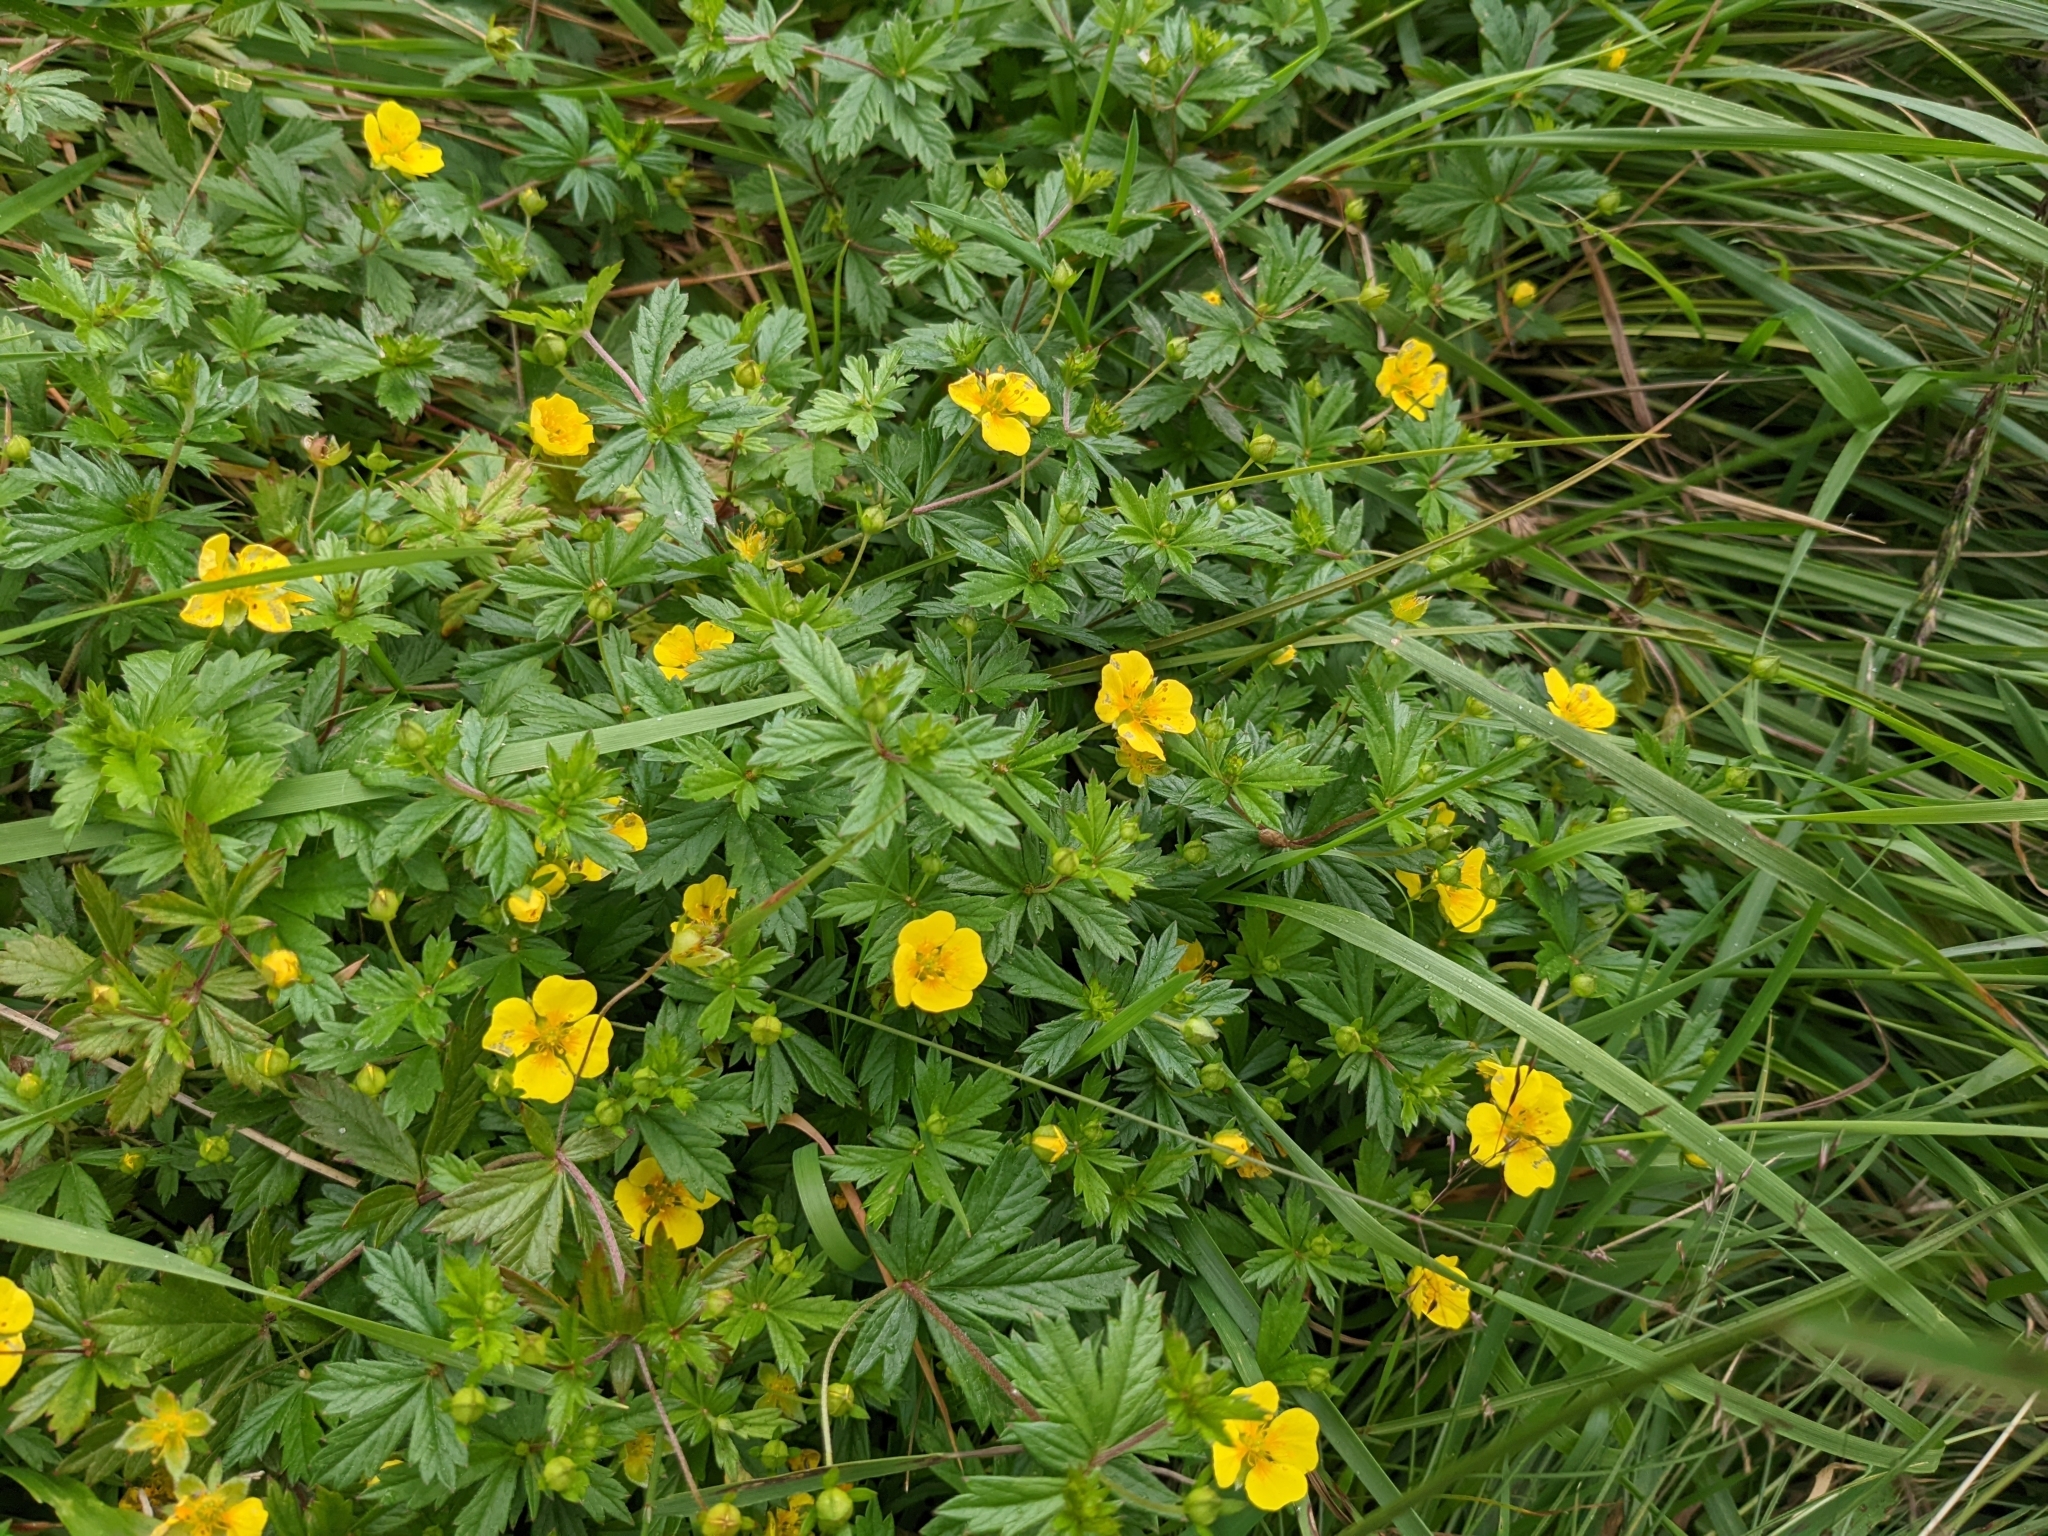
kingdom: Plantae
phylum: Tracheophyta
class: Magnoliopsida
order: Rosales
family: Rosaceae
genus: Potentilla
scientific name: Potentilla erecta
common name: Tormentil
